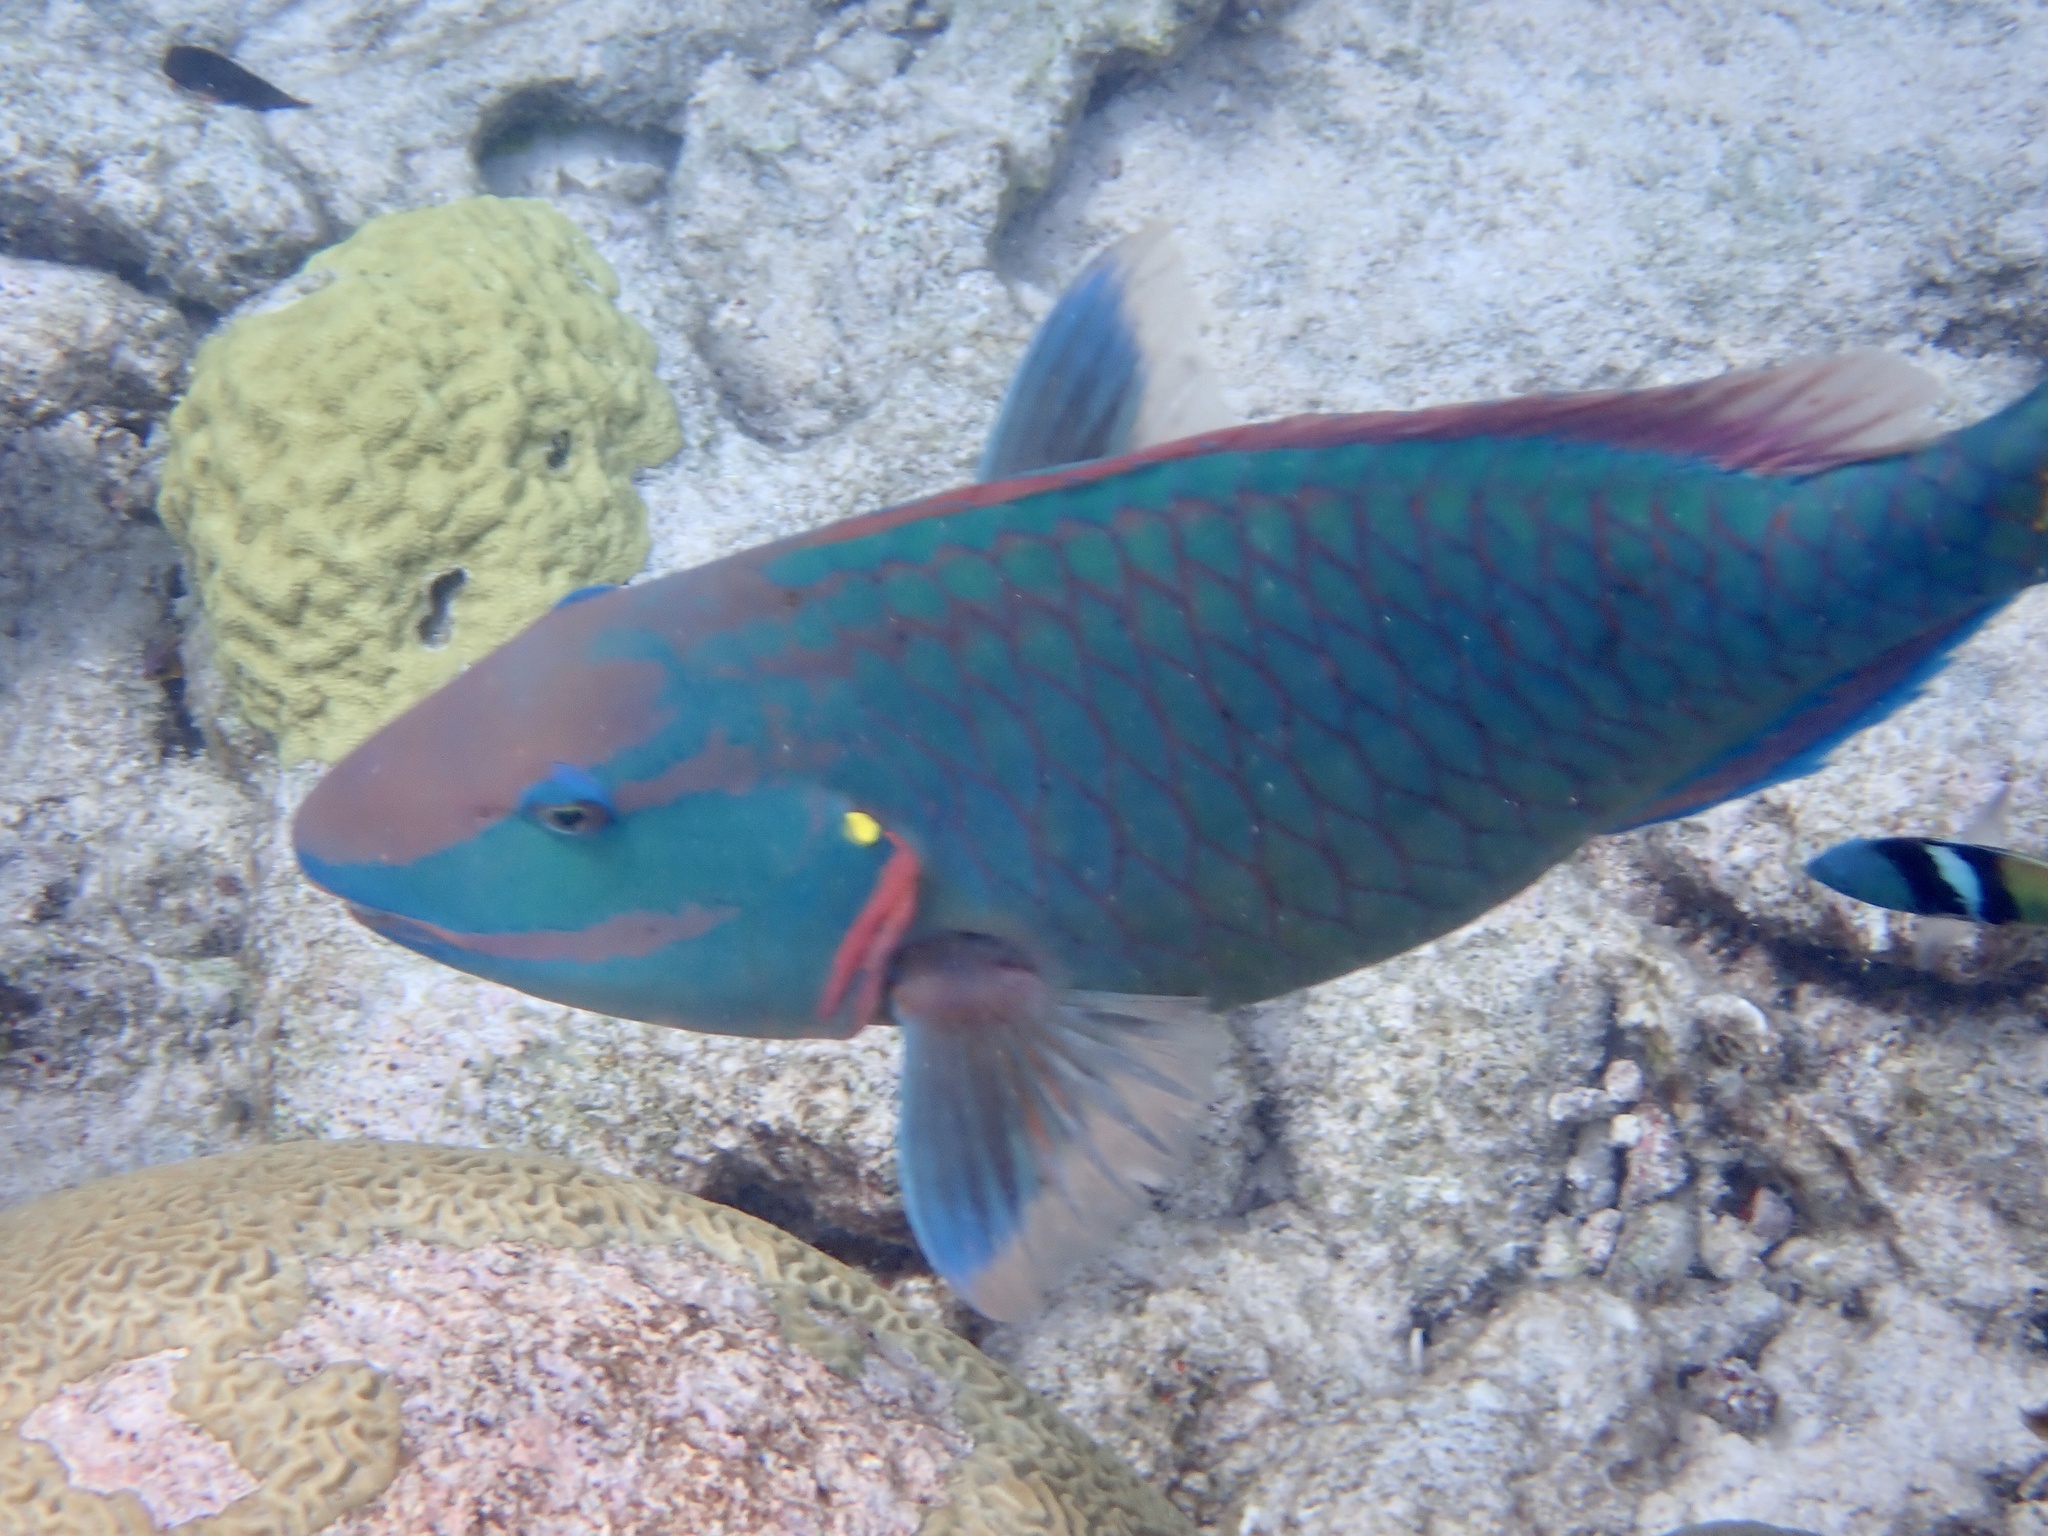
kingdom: Animalia
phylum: Chordata
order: Perciformes
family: Scaridae
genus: Sparisoma
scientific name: Sparisoma viride
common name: Stoplight parrotfish
